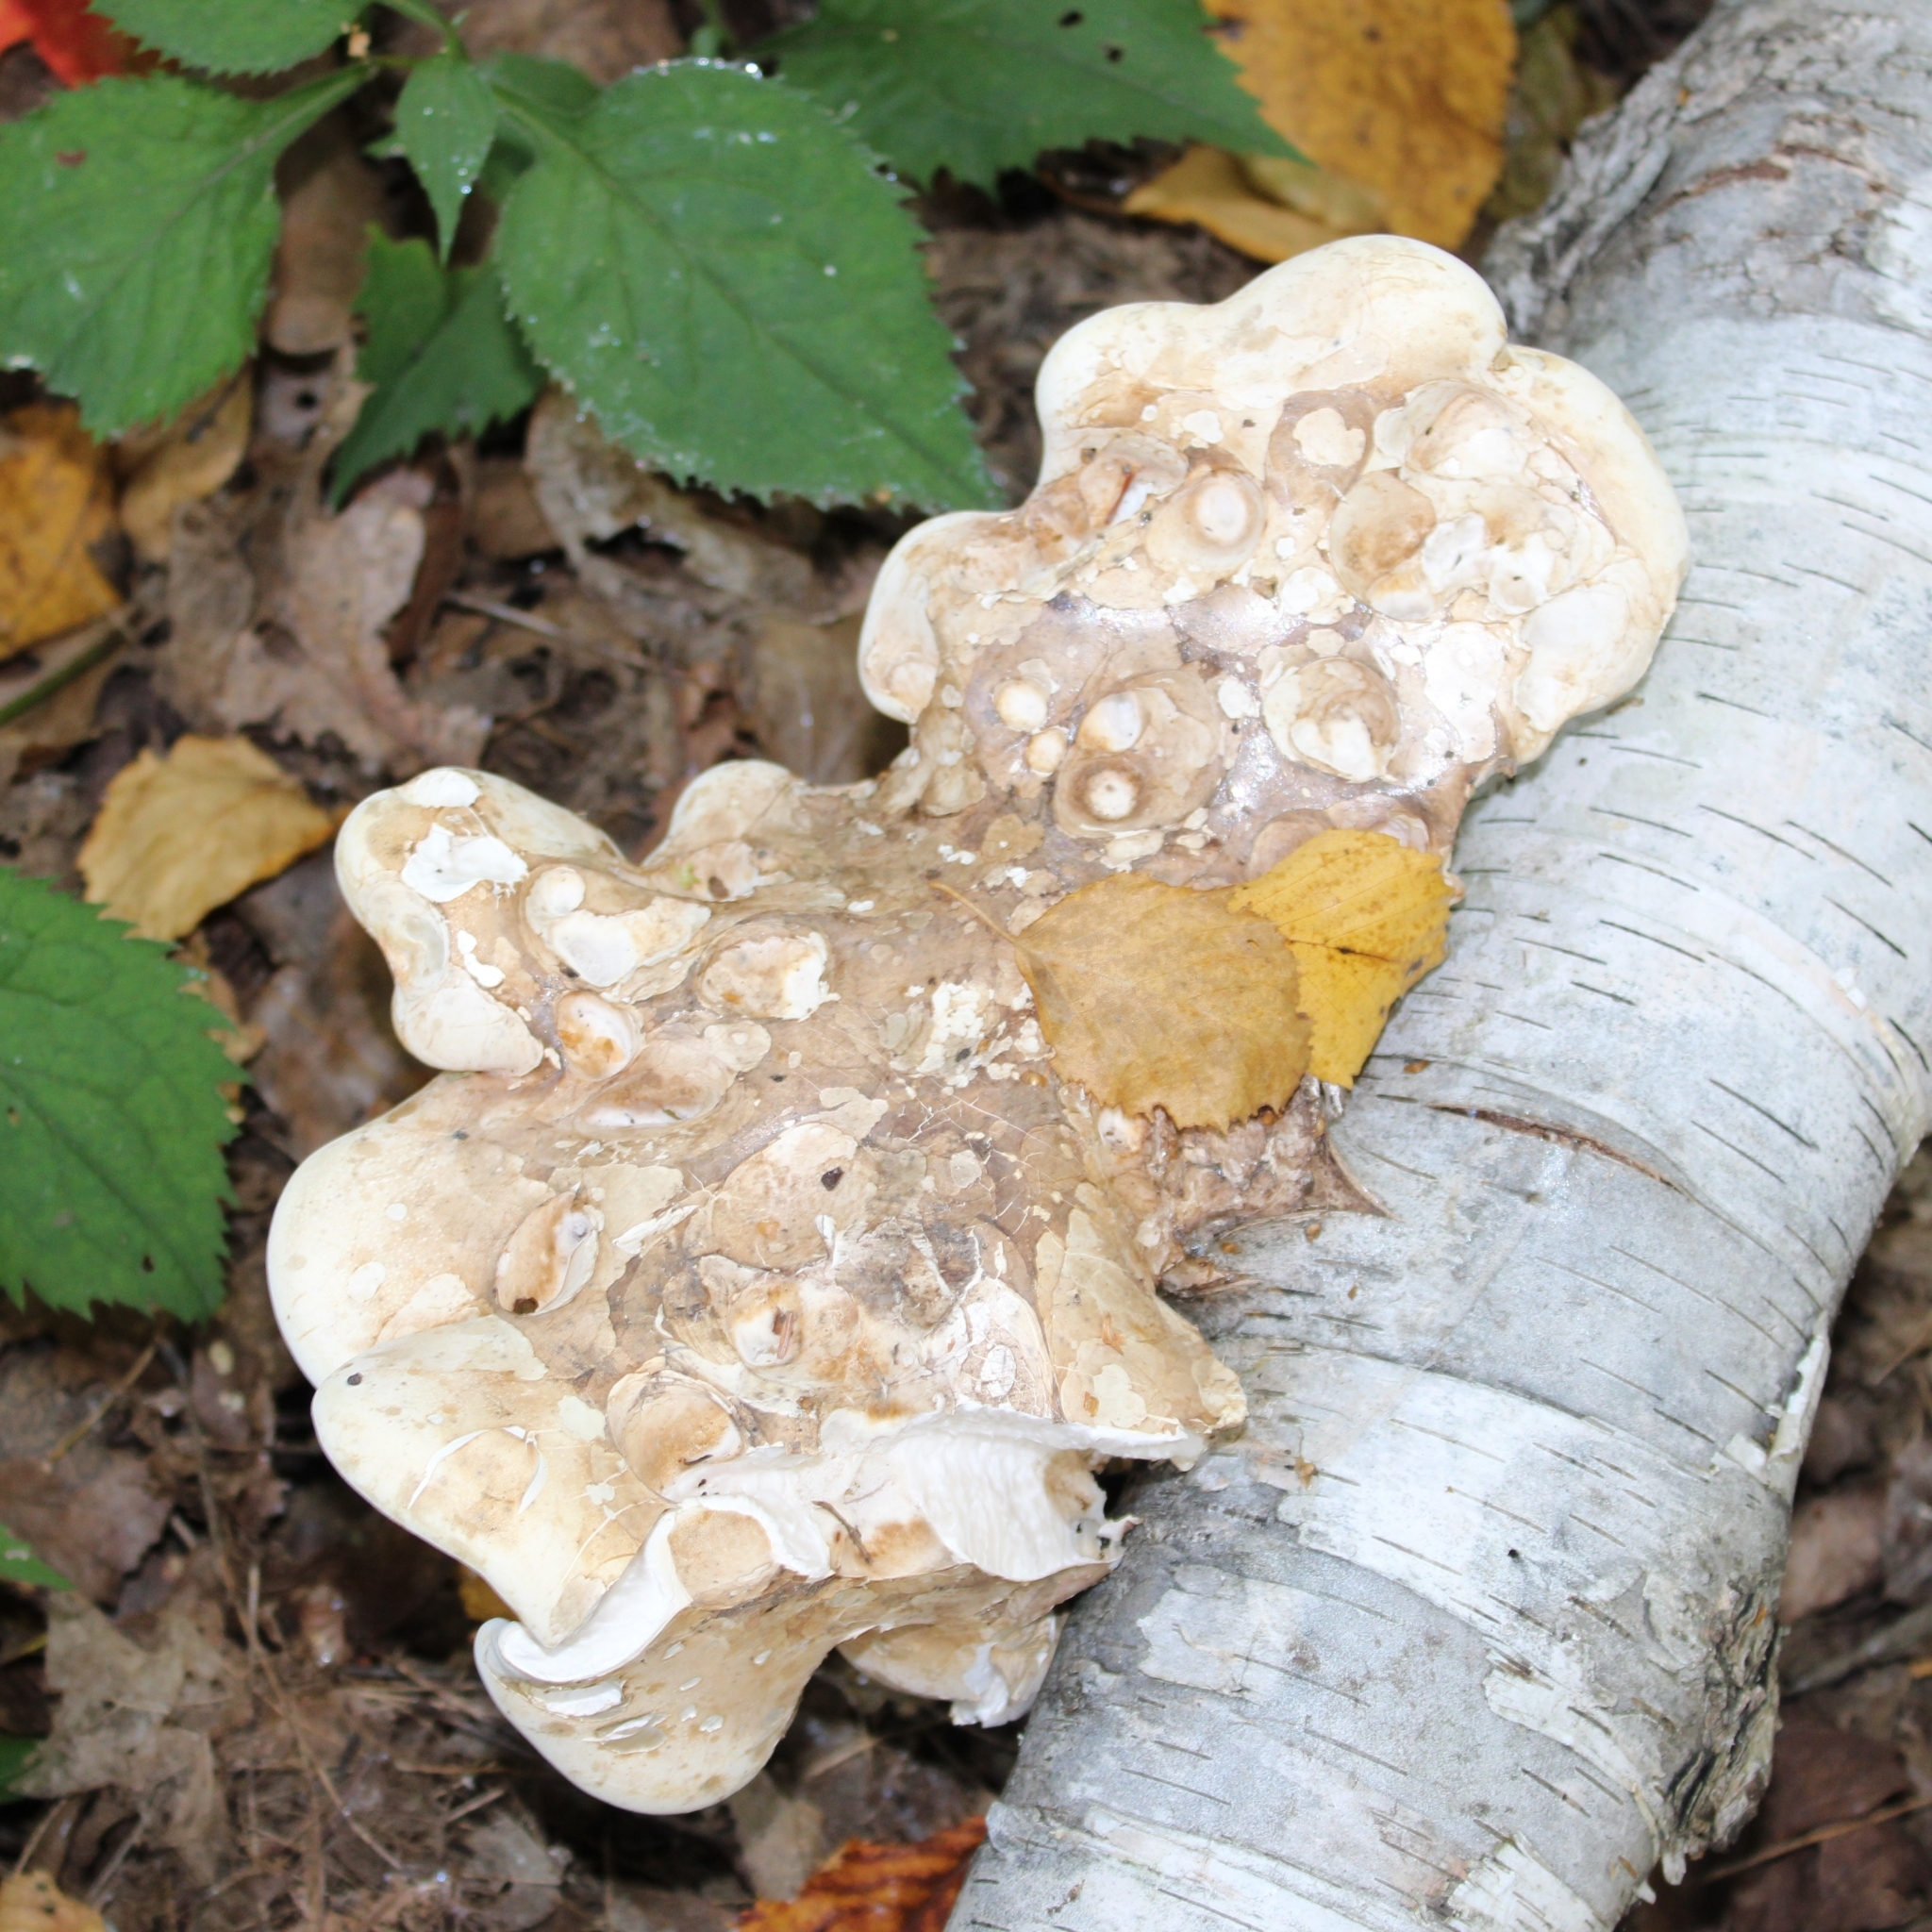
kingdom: Fungi
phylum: Basidiomycota
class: Agaricomycetes
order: Polyporales
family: Fomitopsidaceae
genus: Fomitopsis
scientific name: Fomitopsis betulina
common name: Birch polypore
